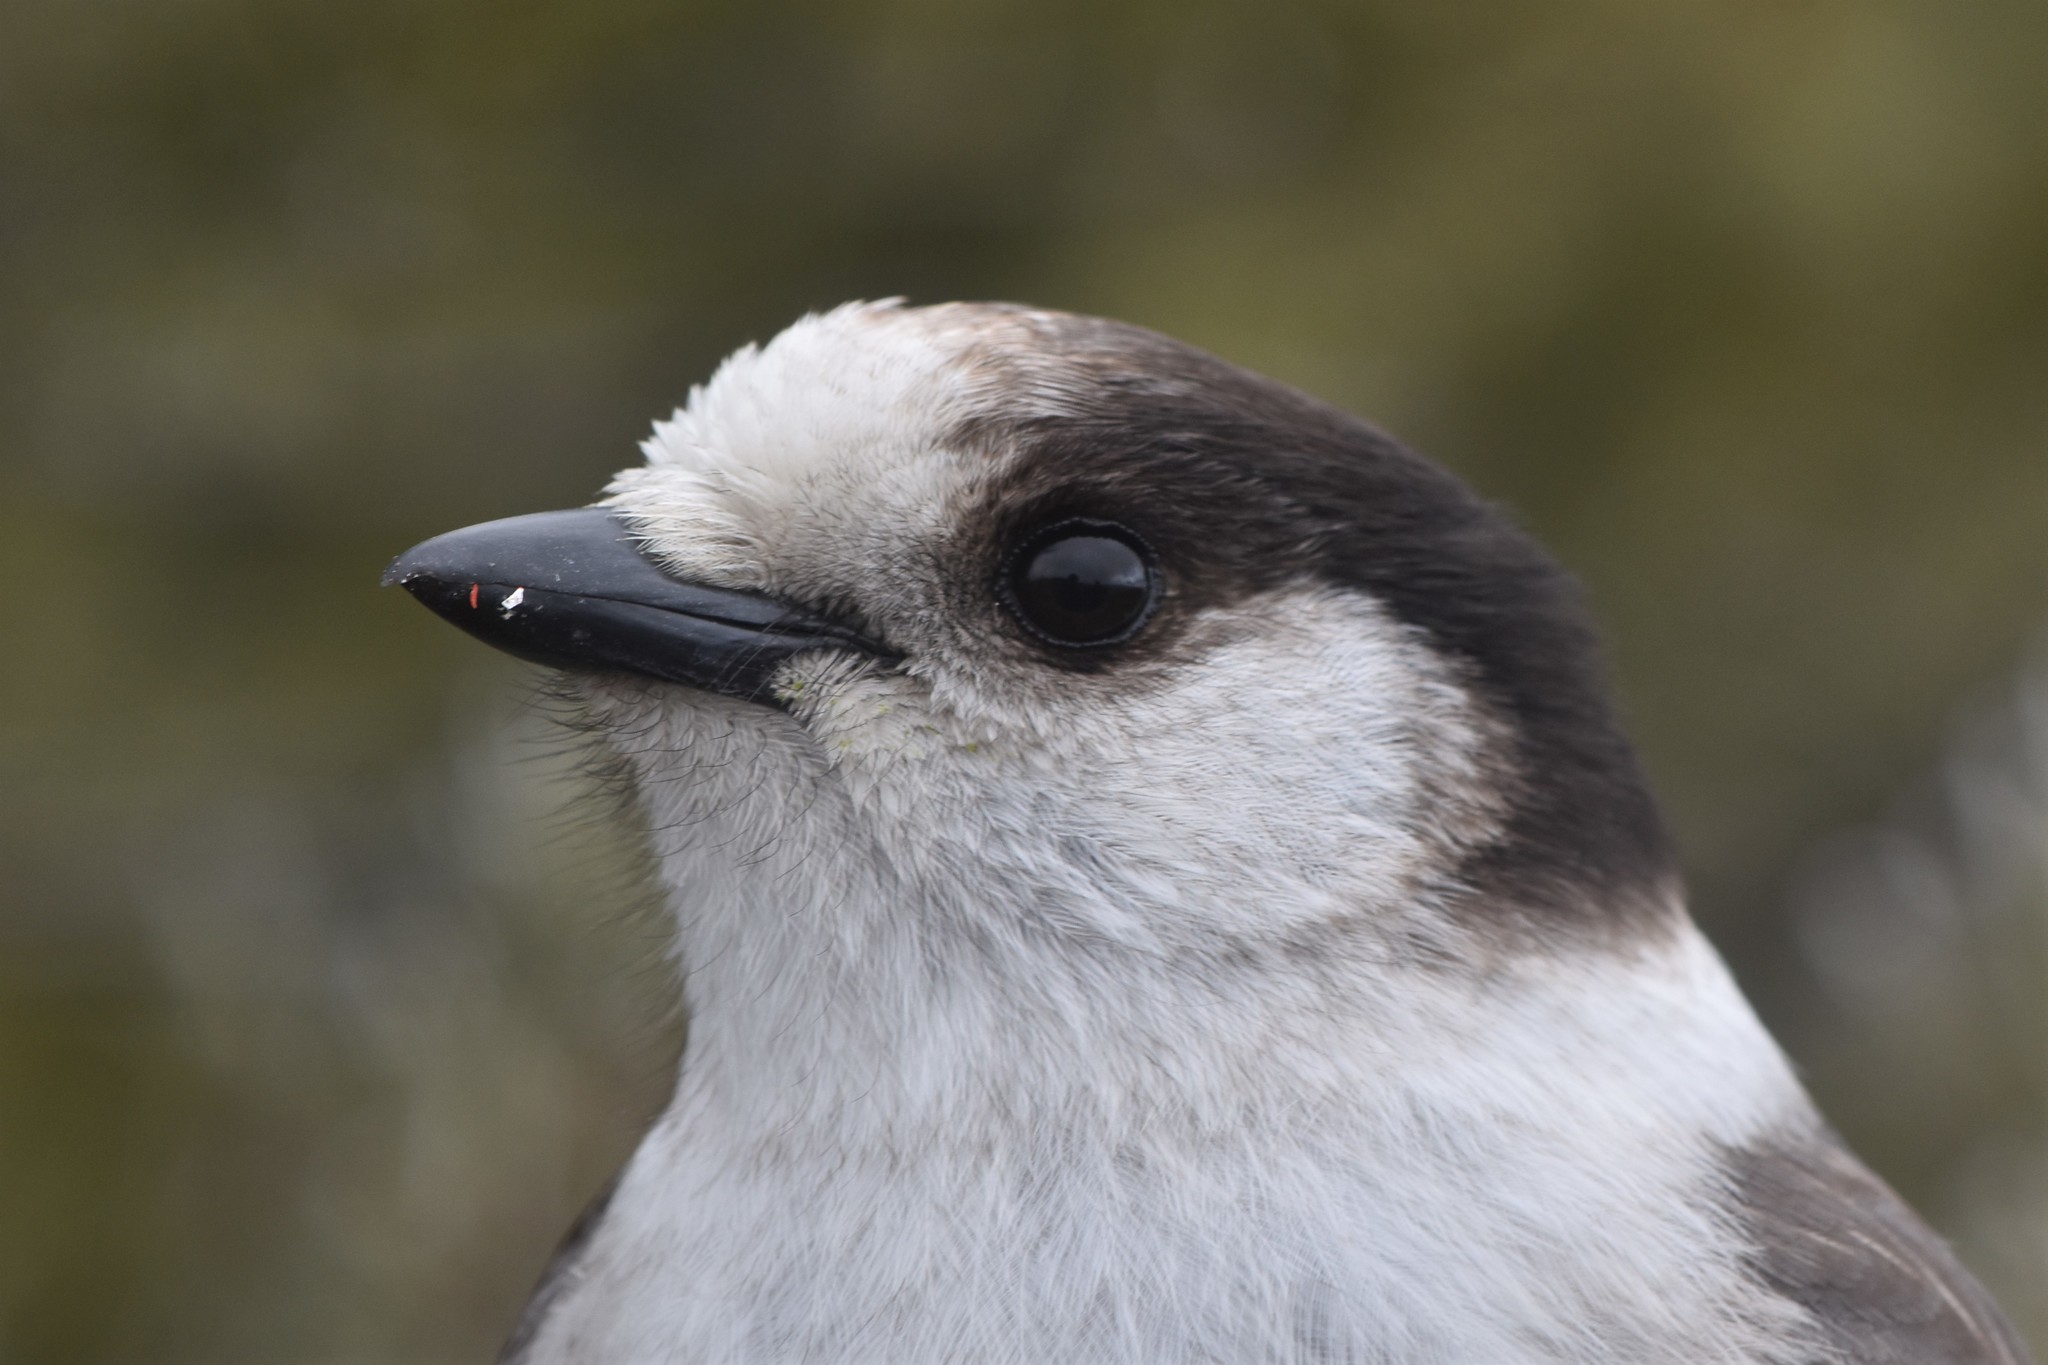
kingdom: Animalia
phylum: Chordata
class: Aves
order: Passeriformes
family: Corvidae
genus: Perisoreus
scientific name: Perisoreus canadensis
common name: Gray jay
